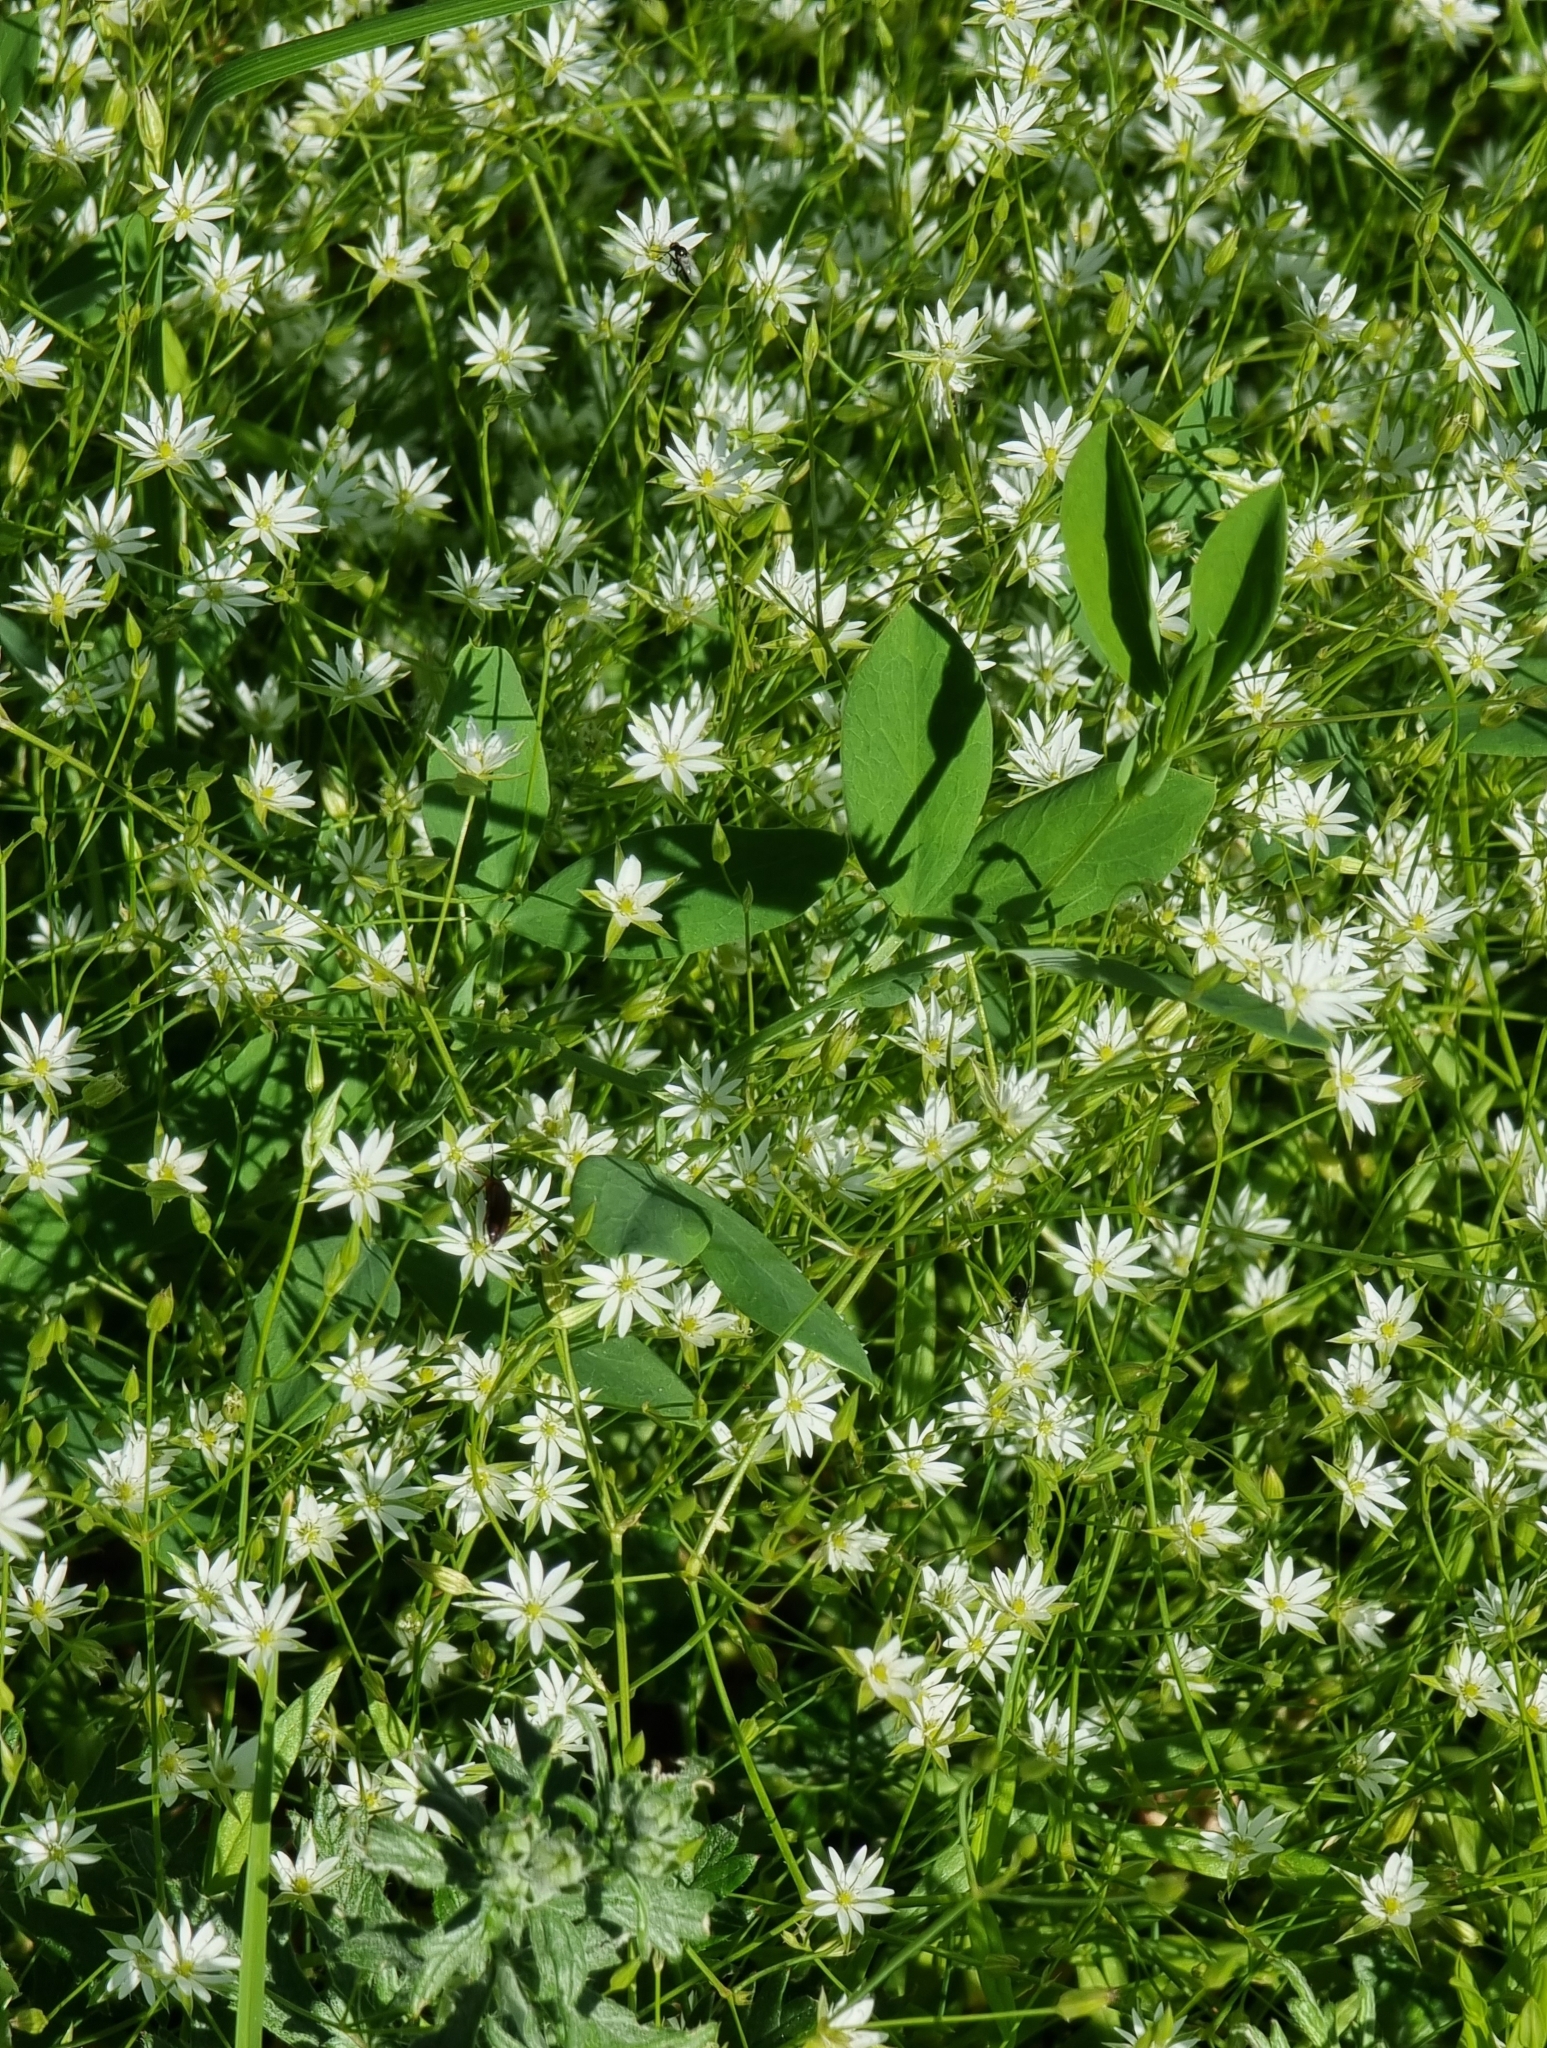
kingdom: Plantae
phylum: Tracheophyta
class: Magnoliopsida
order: Caryophyllales
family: Caryophyllaceae
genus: Stellaria
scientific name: Stellaria graminea
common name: Grass-like starwort
